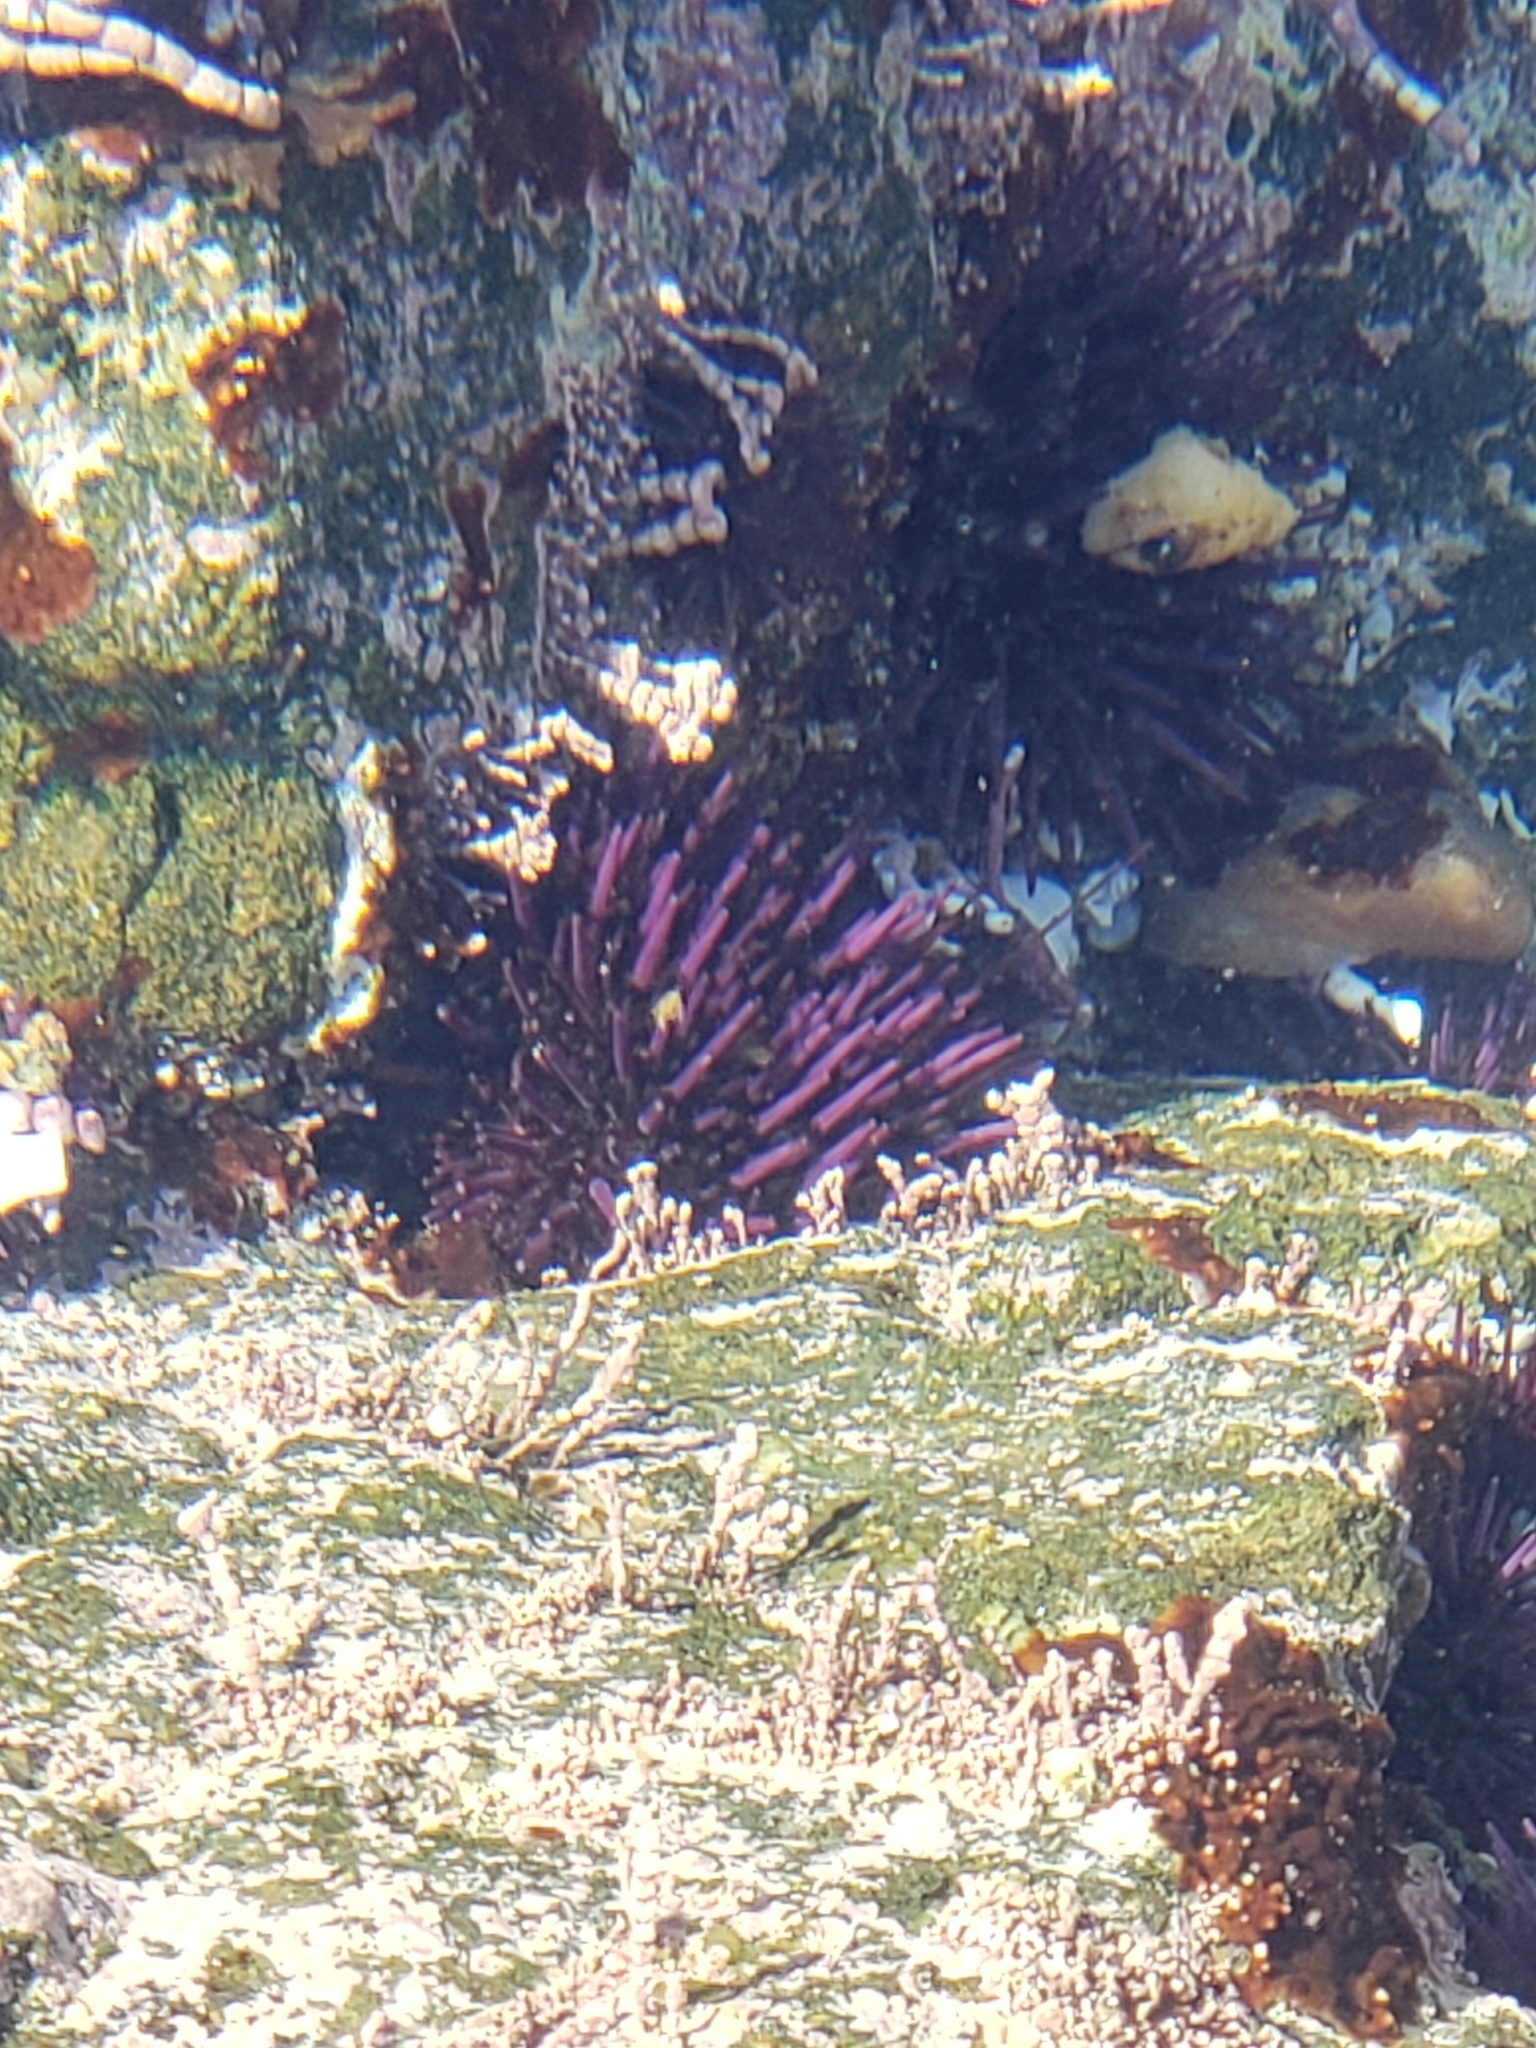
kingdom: Animalia
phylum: Echinodermata
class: Echinoidea
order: Camarodonta
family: Strongylocentrotidae
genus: Strongylocentrotus
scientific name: Strongylocentrotus purpuratus
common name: Purple sea urchin
